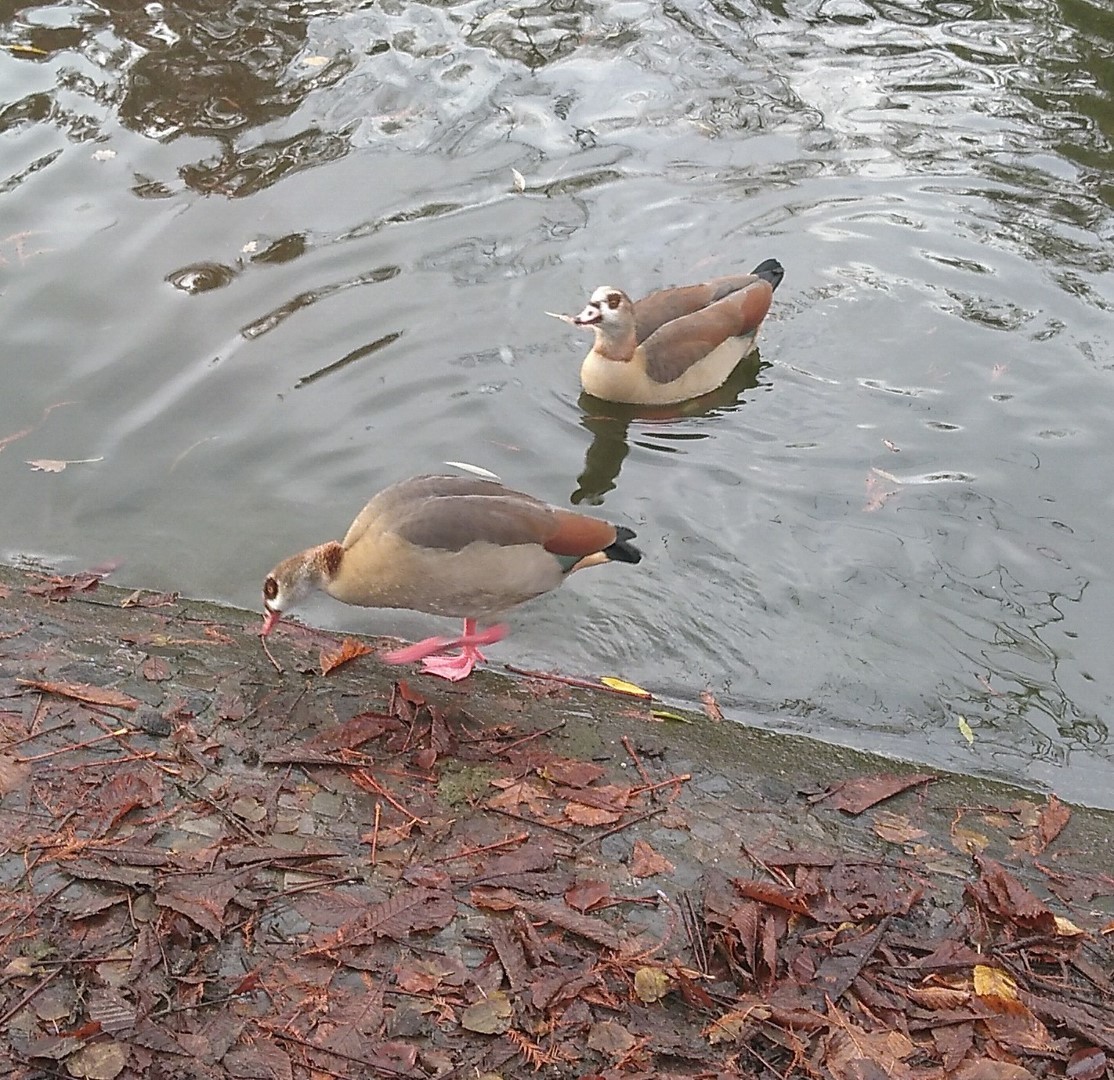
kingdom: Animalia
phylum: Chordata
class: Aves
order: Anseriformes
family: Anatidae
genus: Alopochen
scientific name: Alopochen aegyptiaca
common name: Egyptian goose
